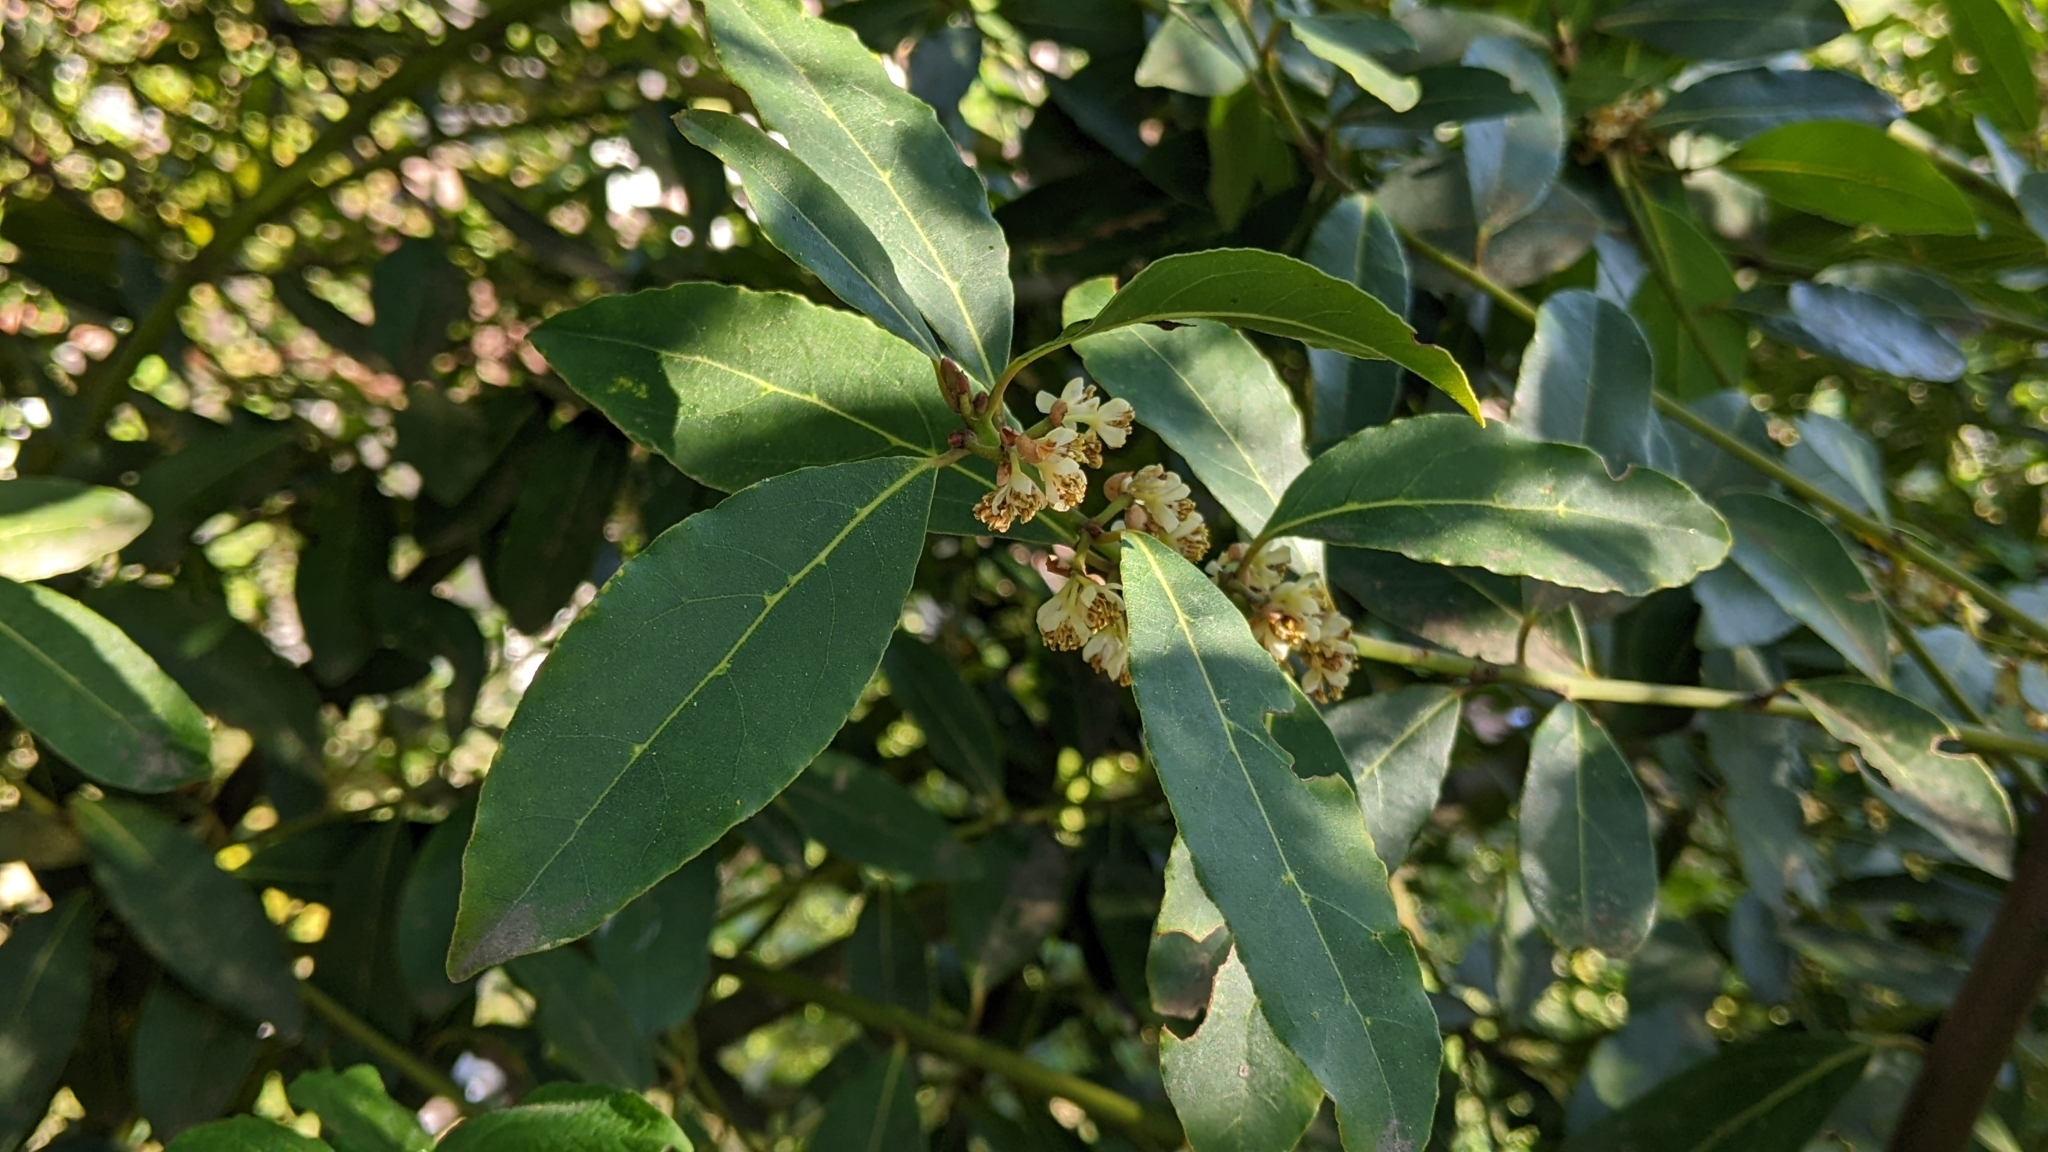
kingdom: Plantae
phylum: Tracheophyta
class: Magnoliopsida
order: Laurales
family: Lauraceae
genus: Laurus
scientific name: Laurus nobilis
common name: Bay
